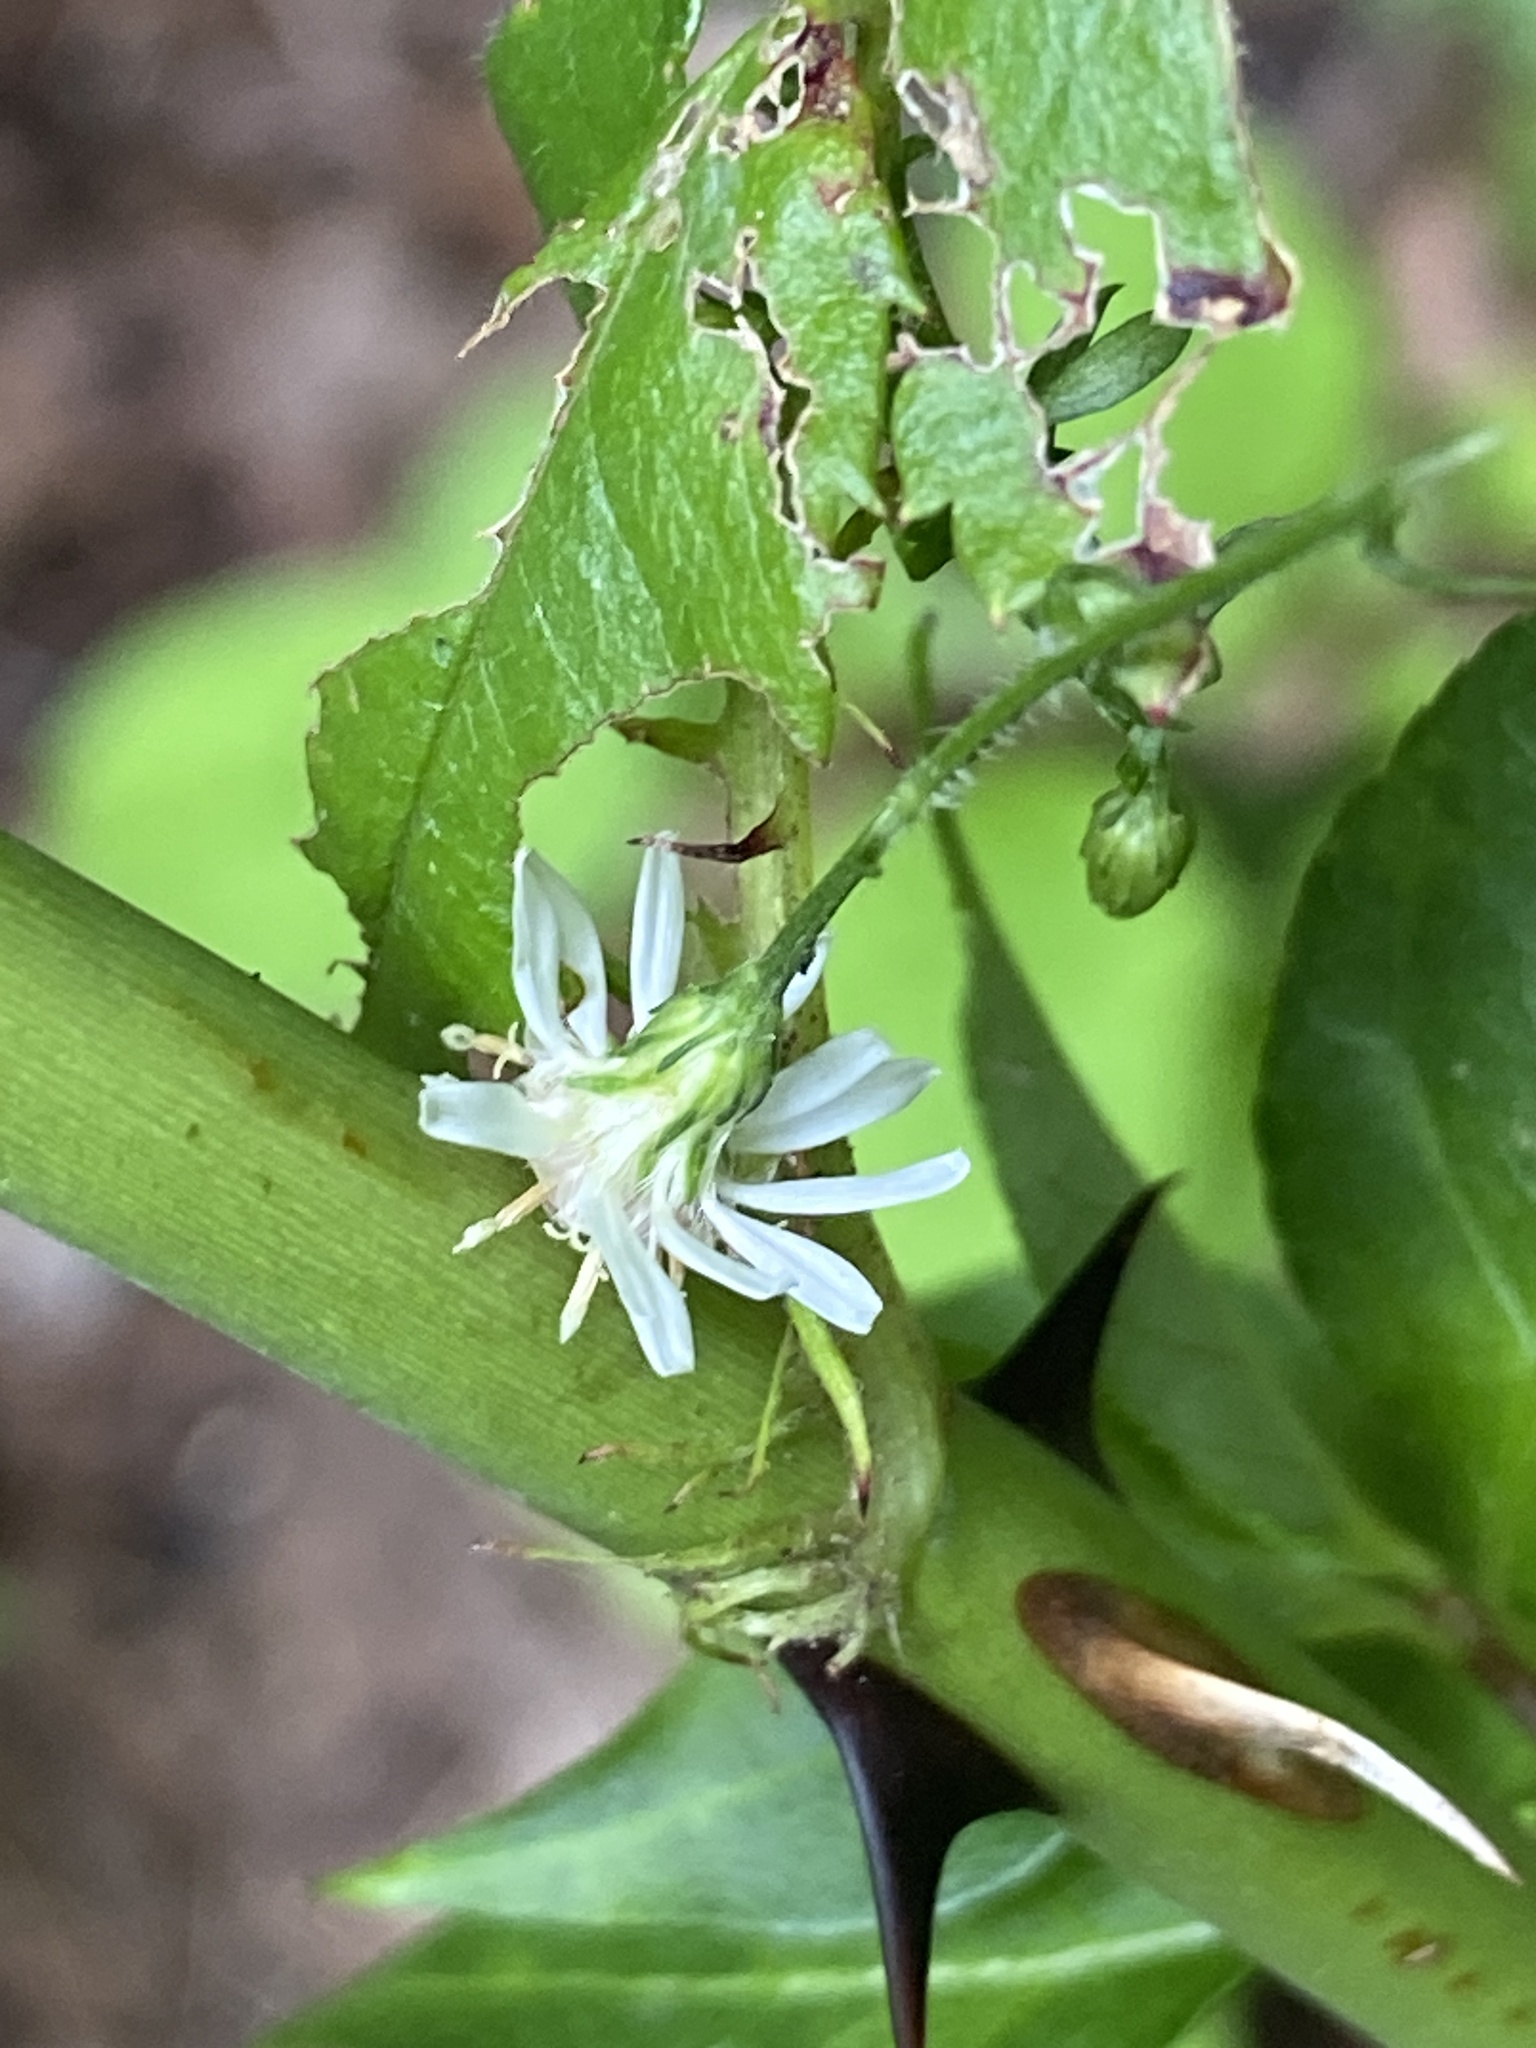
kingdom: Plantae
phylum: Tracheophyta
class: Magnoliopsida
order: Asterales
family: Asteraceae
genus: Symphyotrichum
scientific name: Symphyotrichum lateriflorum
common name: Calico aster
